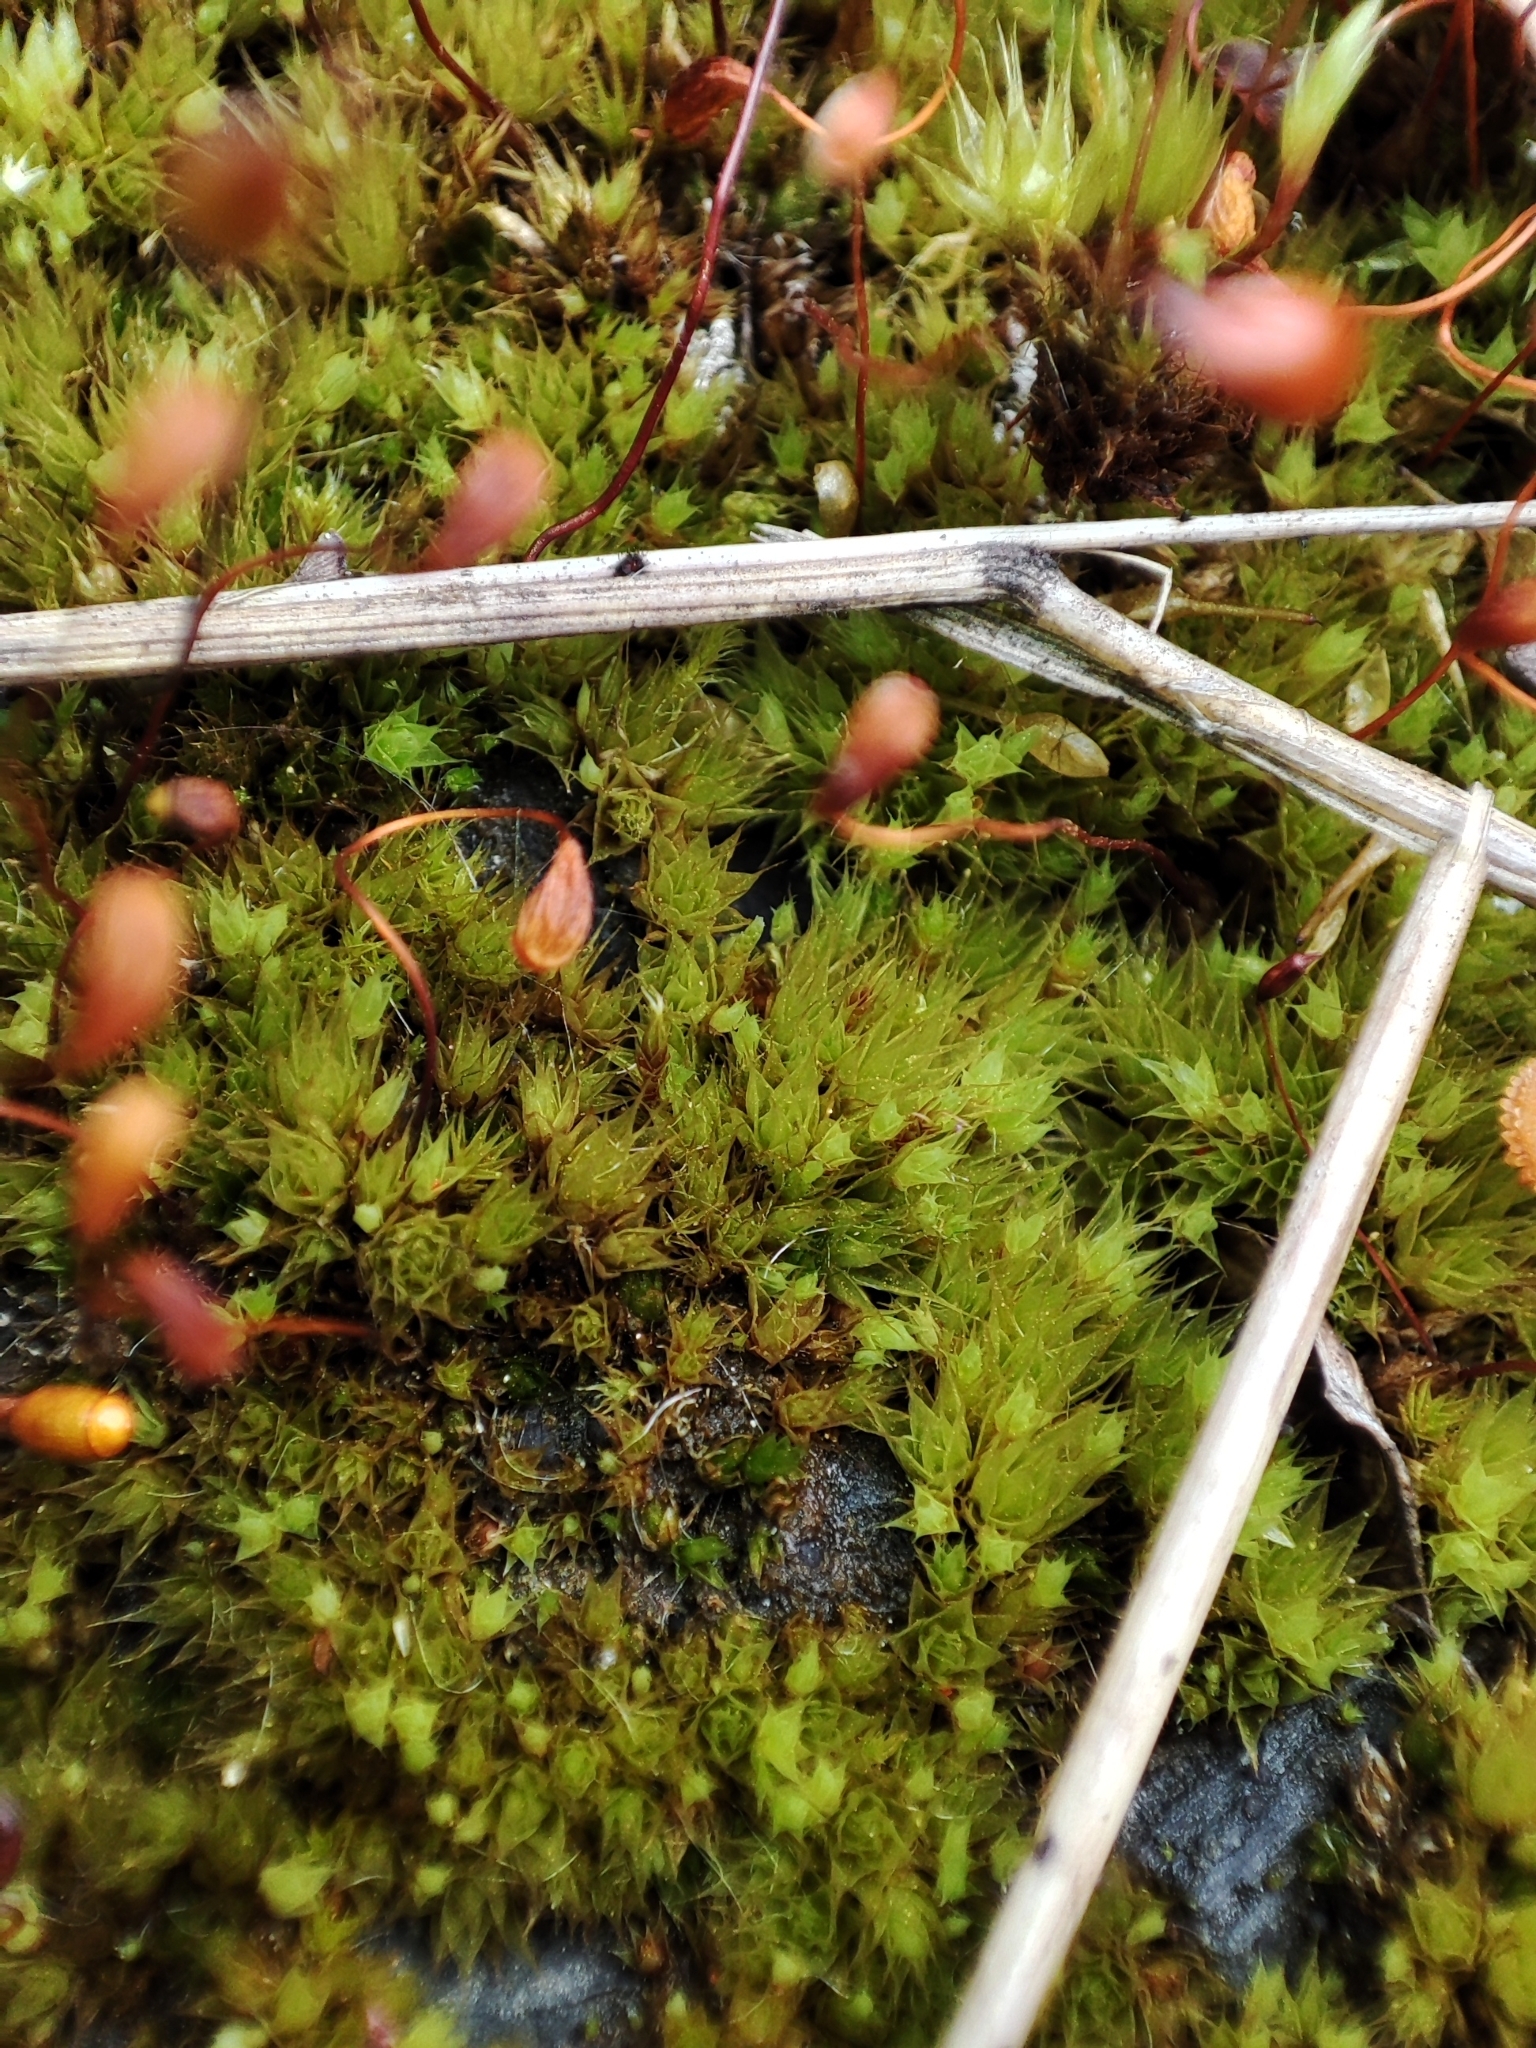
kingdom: Plantae
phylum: Bryophyta
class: Bryopsida
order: Funariales
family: Funariaceae
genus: Funaria
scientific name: Funaria hygrometrica
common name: Common cord moss
